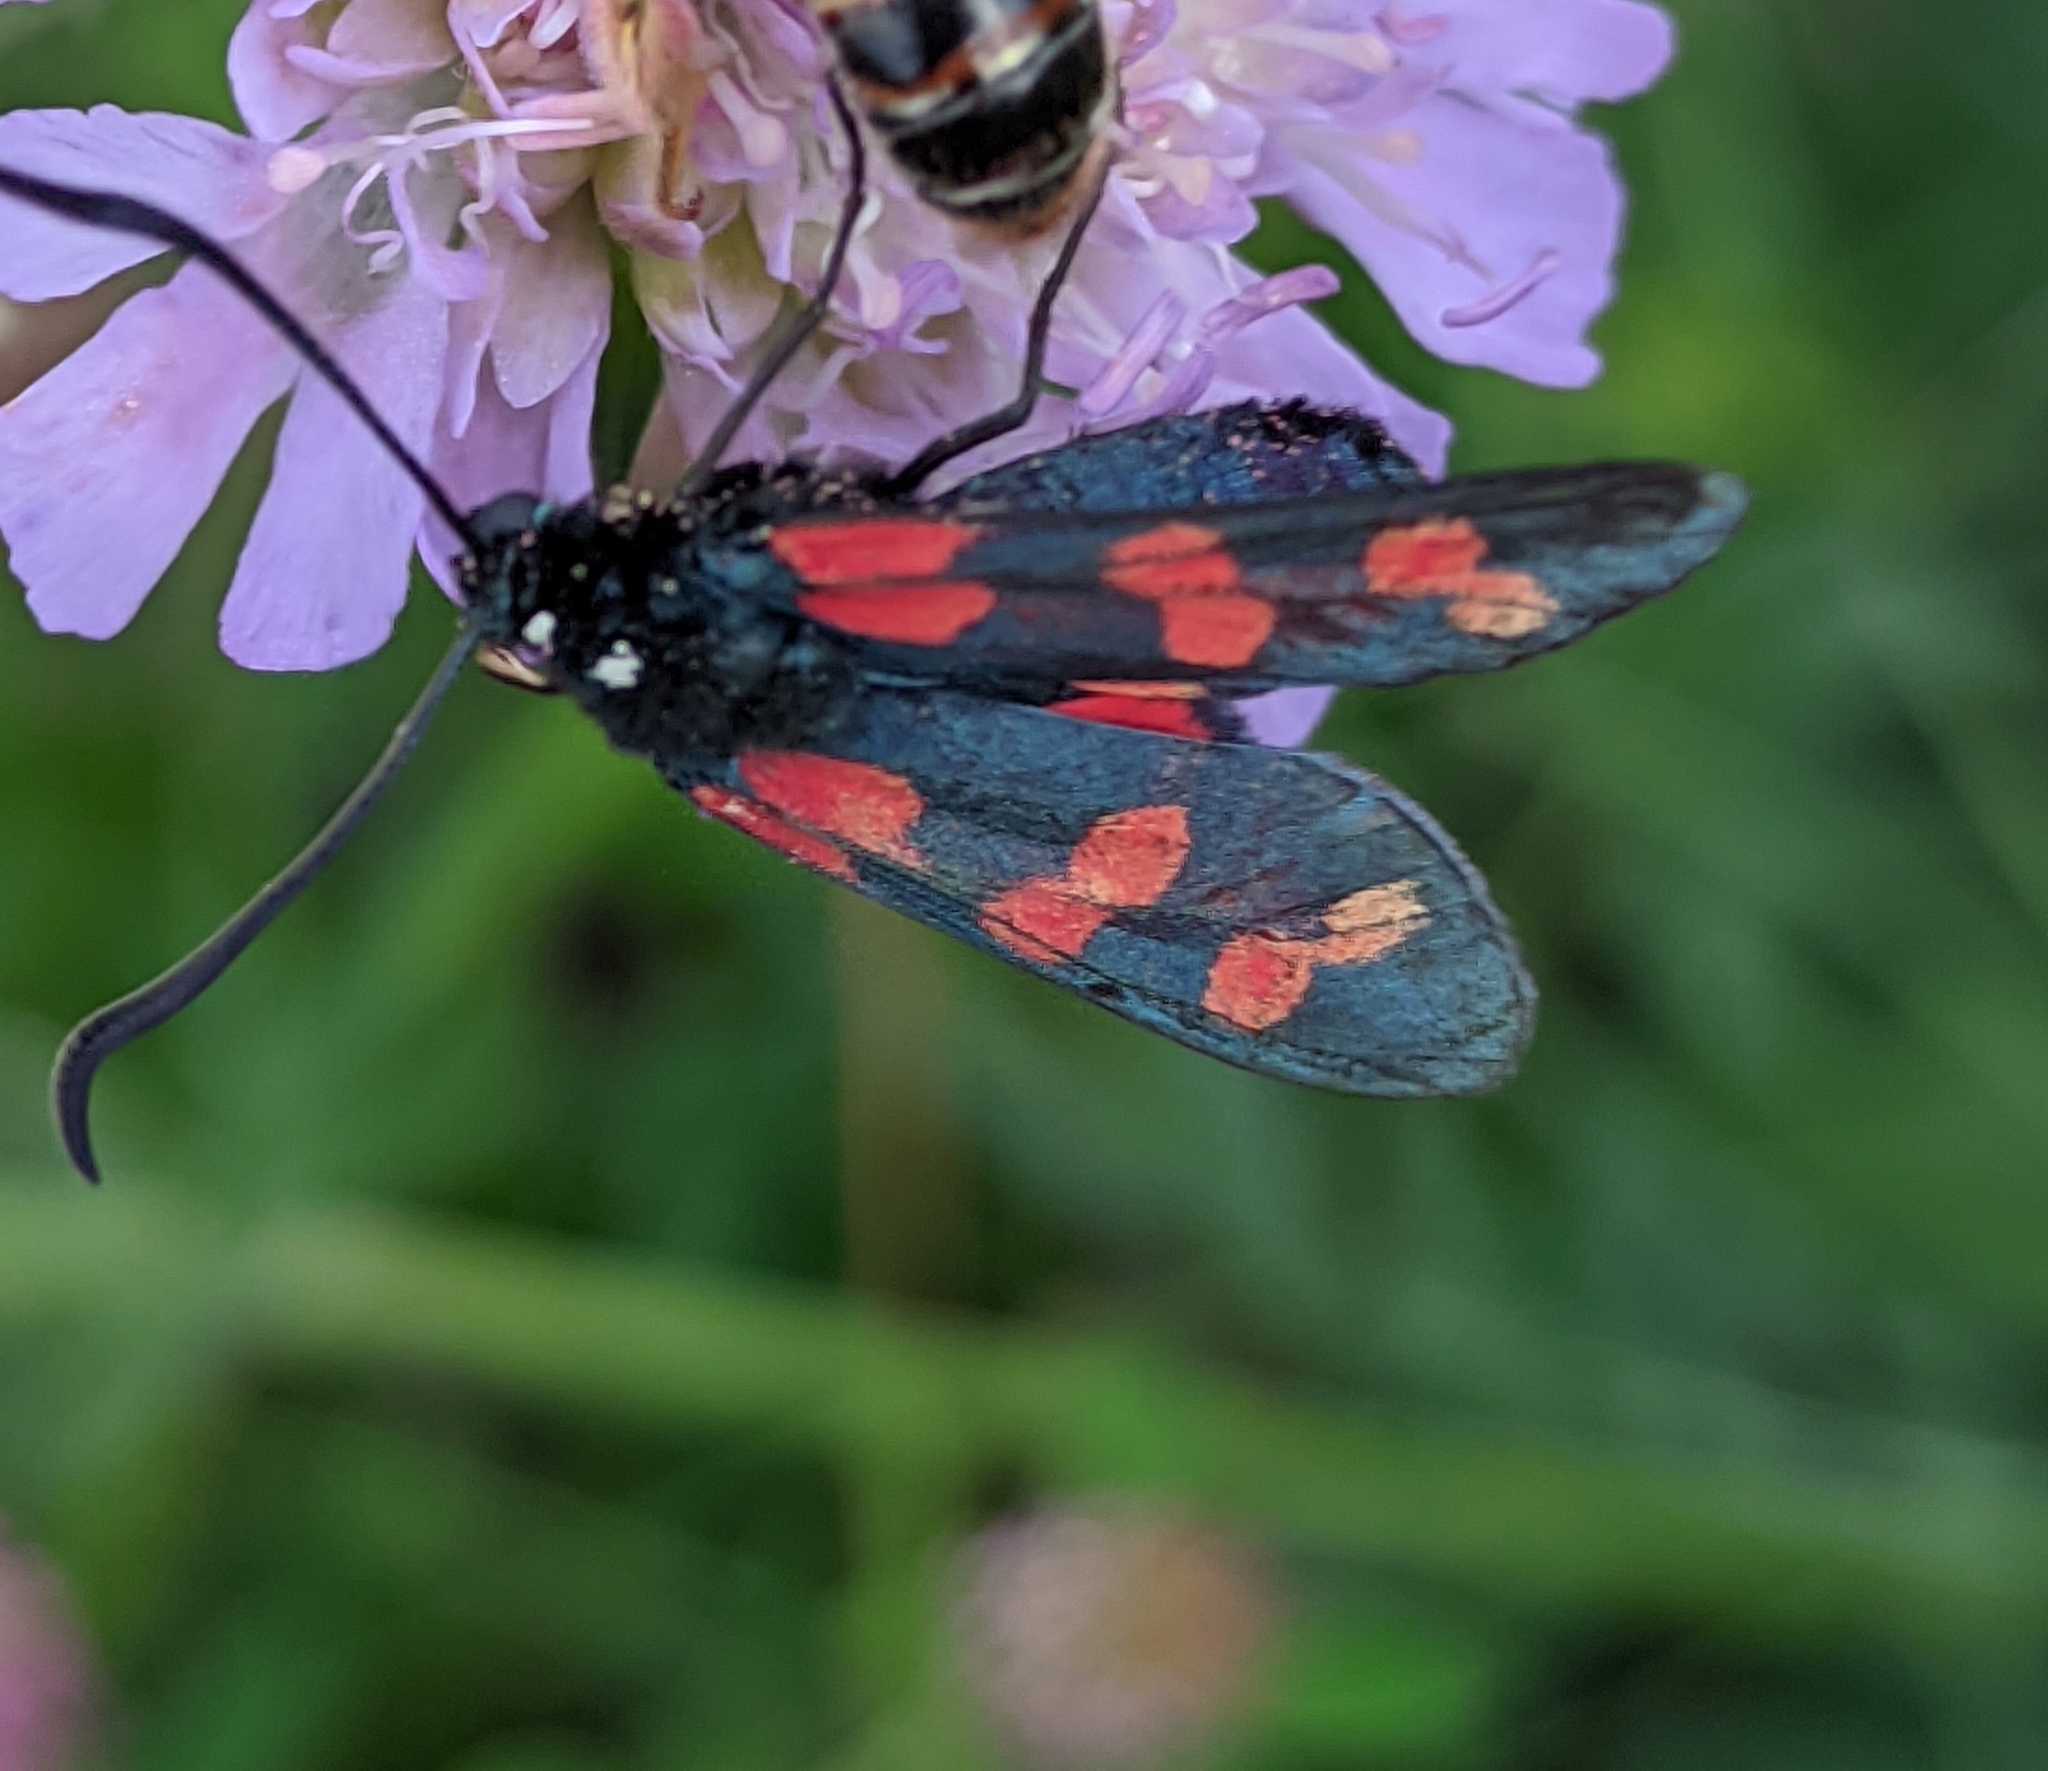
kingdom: Animalia
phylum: Arthropoda
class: Insecta
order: Lepidoptera
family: Zygaenidae
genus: Zygaena
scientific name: Zygaena filipendulae
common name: Six-spot burnet
